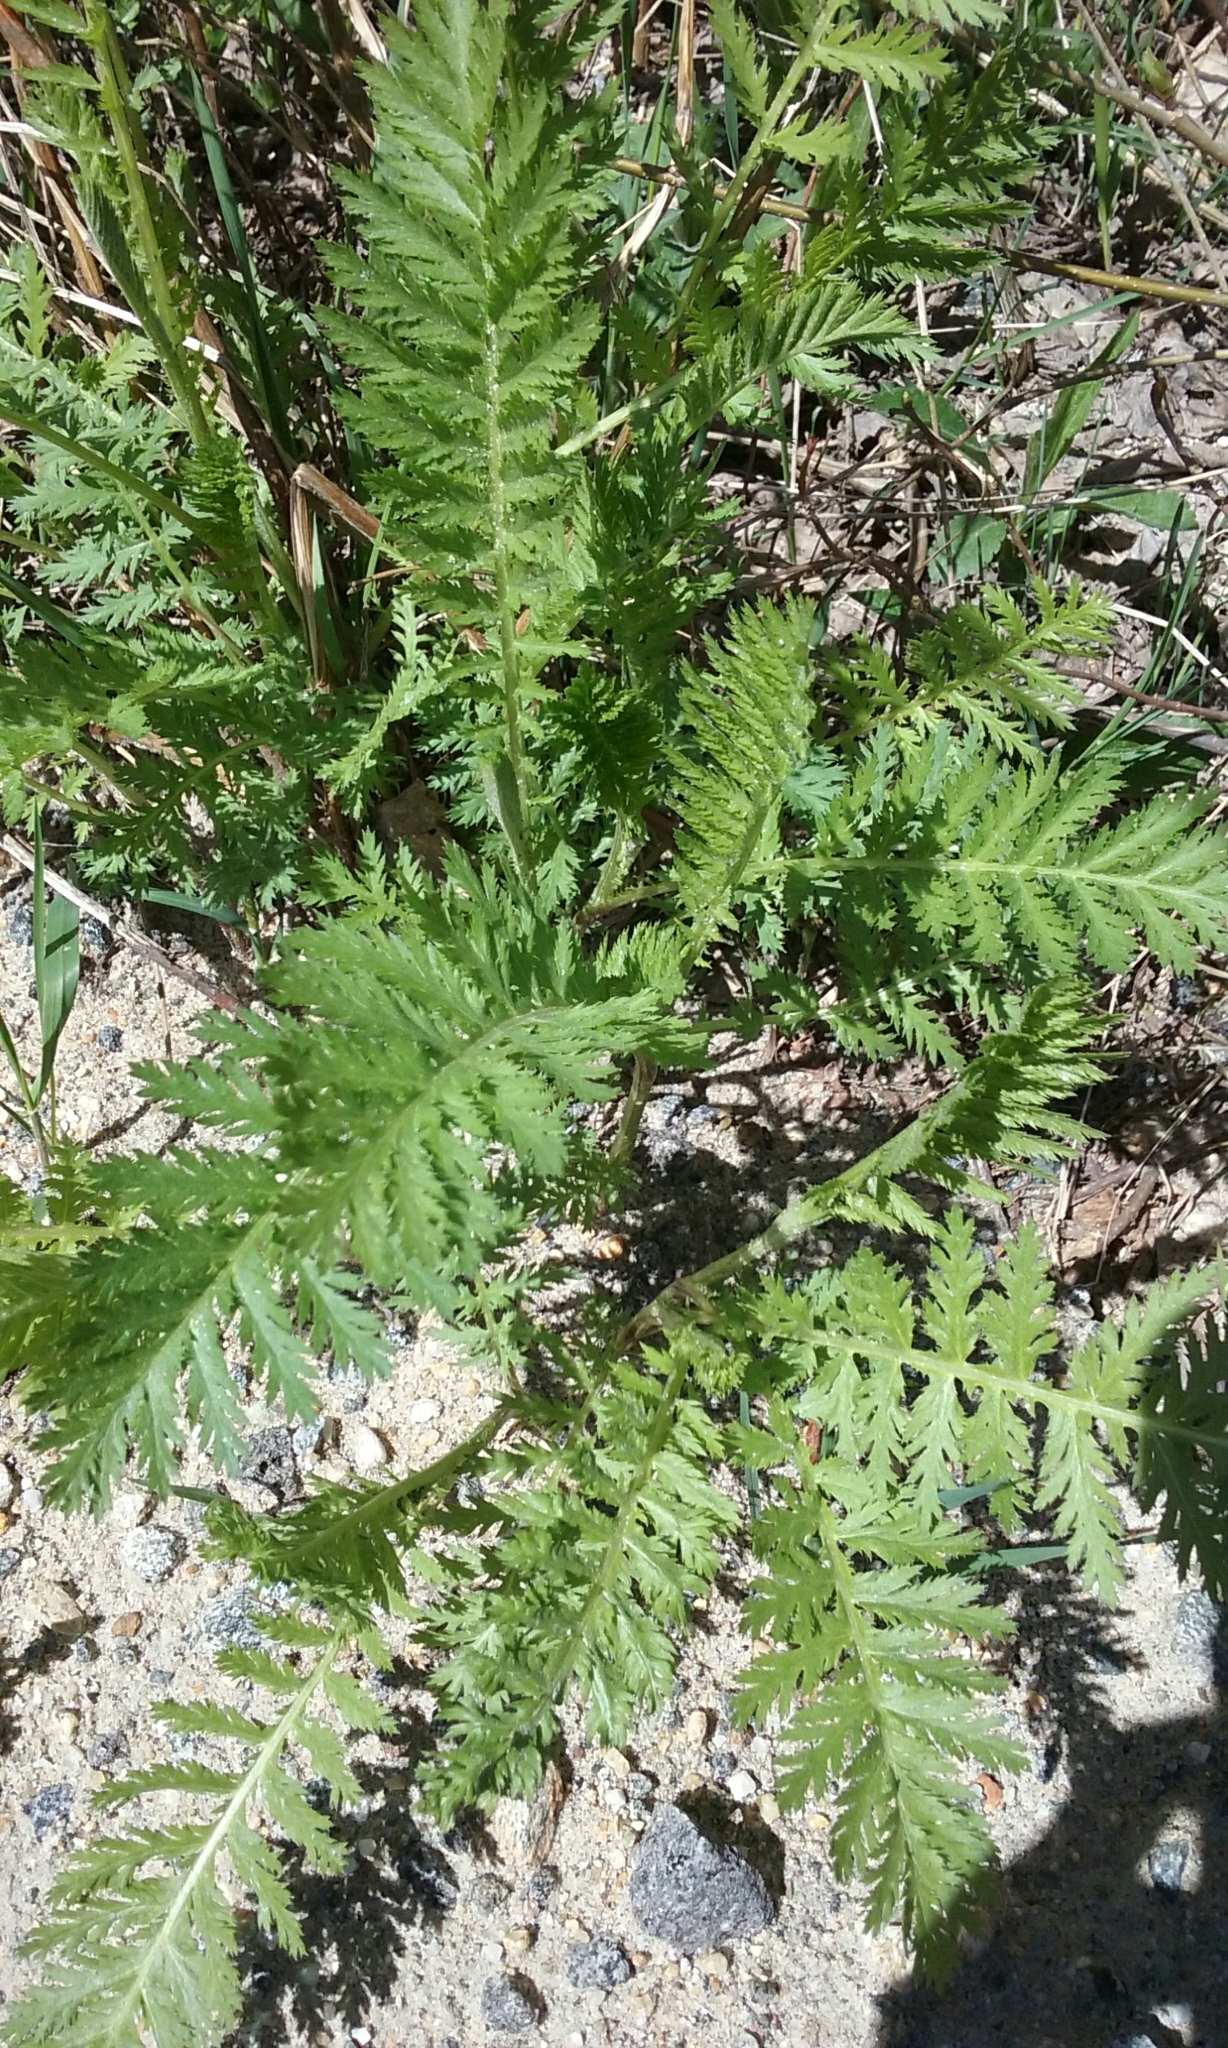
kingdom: Plantae
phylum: Tracheophyta
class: Magnoliopsida
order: Asterales
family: Asteraceae
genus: Tanacetum
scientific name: Tanacetum vulgare
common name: Common tansy
